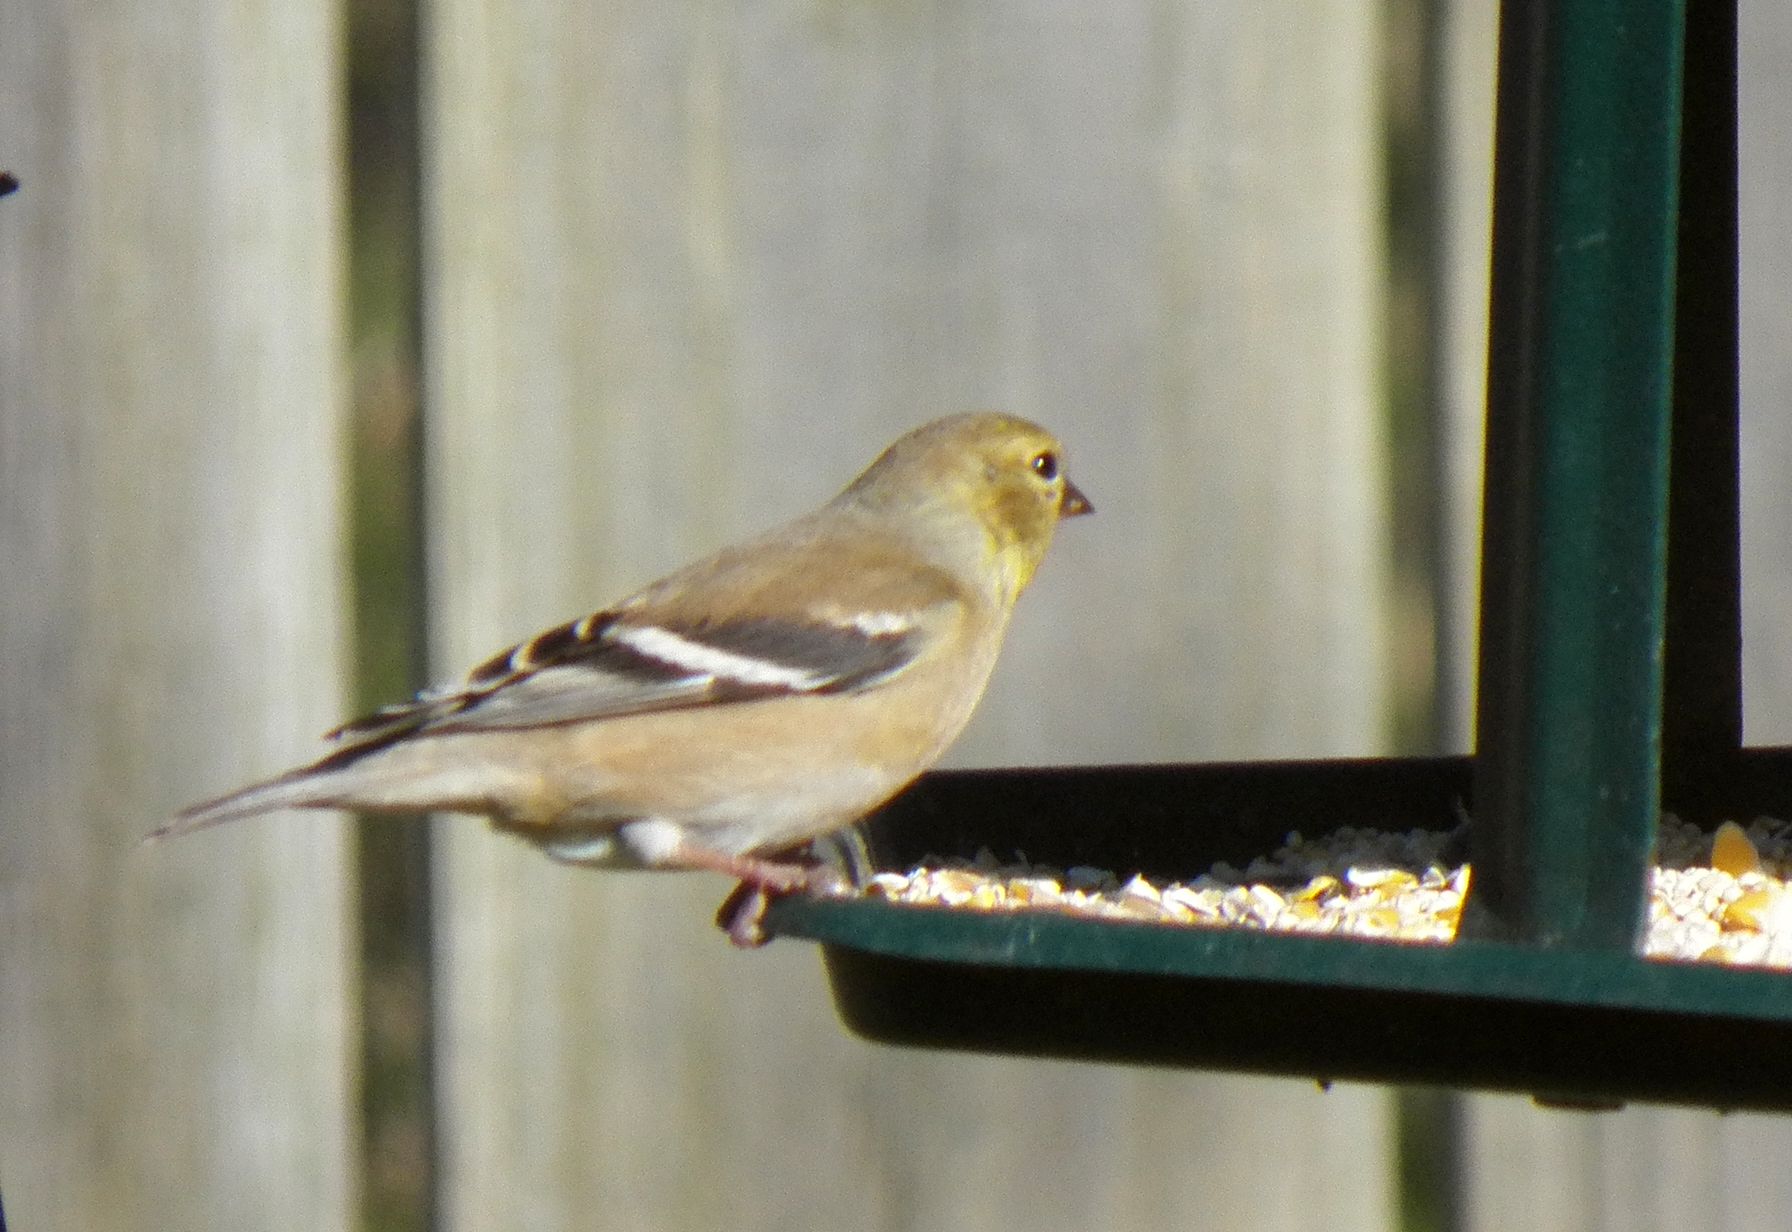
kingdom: Animalia
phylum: Chordata
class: Aves
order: Passeriformes
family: Fringillidae
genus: Spinus
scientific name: Spinus tristis
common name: American goldfinch
